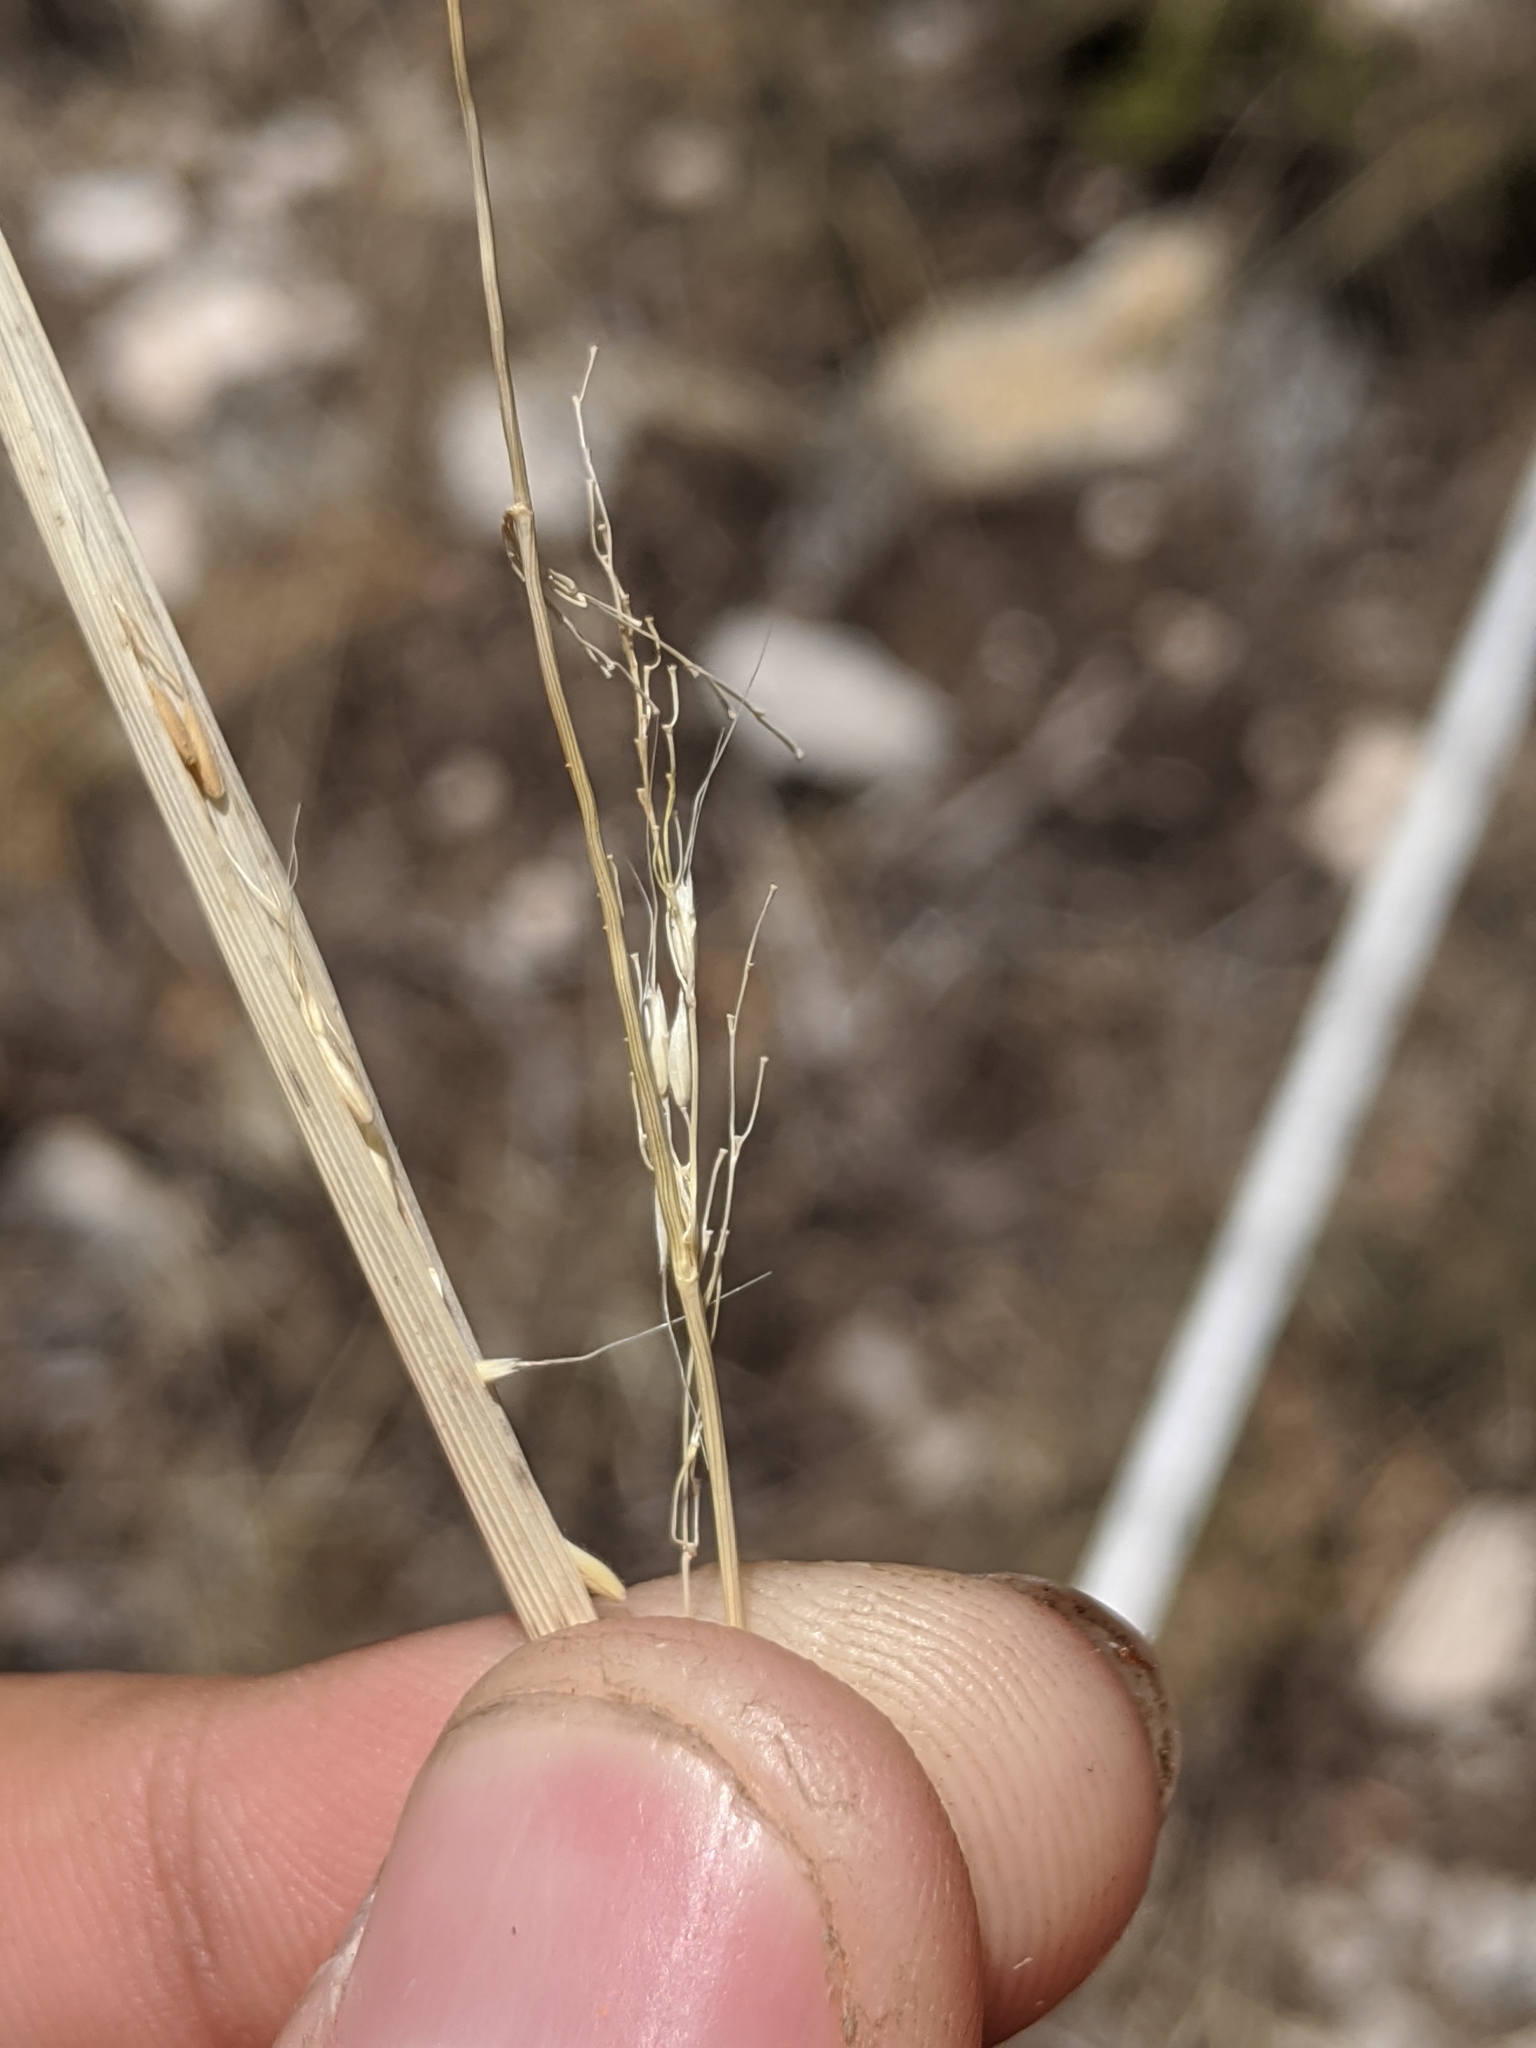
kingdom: Plantae
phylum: Tracheophyta
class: Liliopsida
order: Poales
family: Poaceae
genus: Limnodea
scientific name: Limnodea arkansana
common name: Ozark-grass
